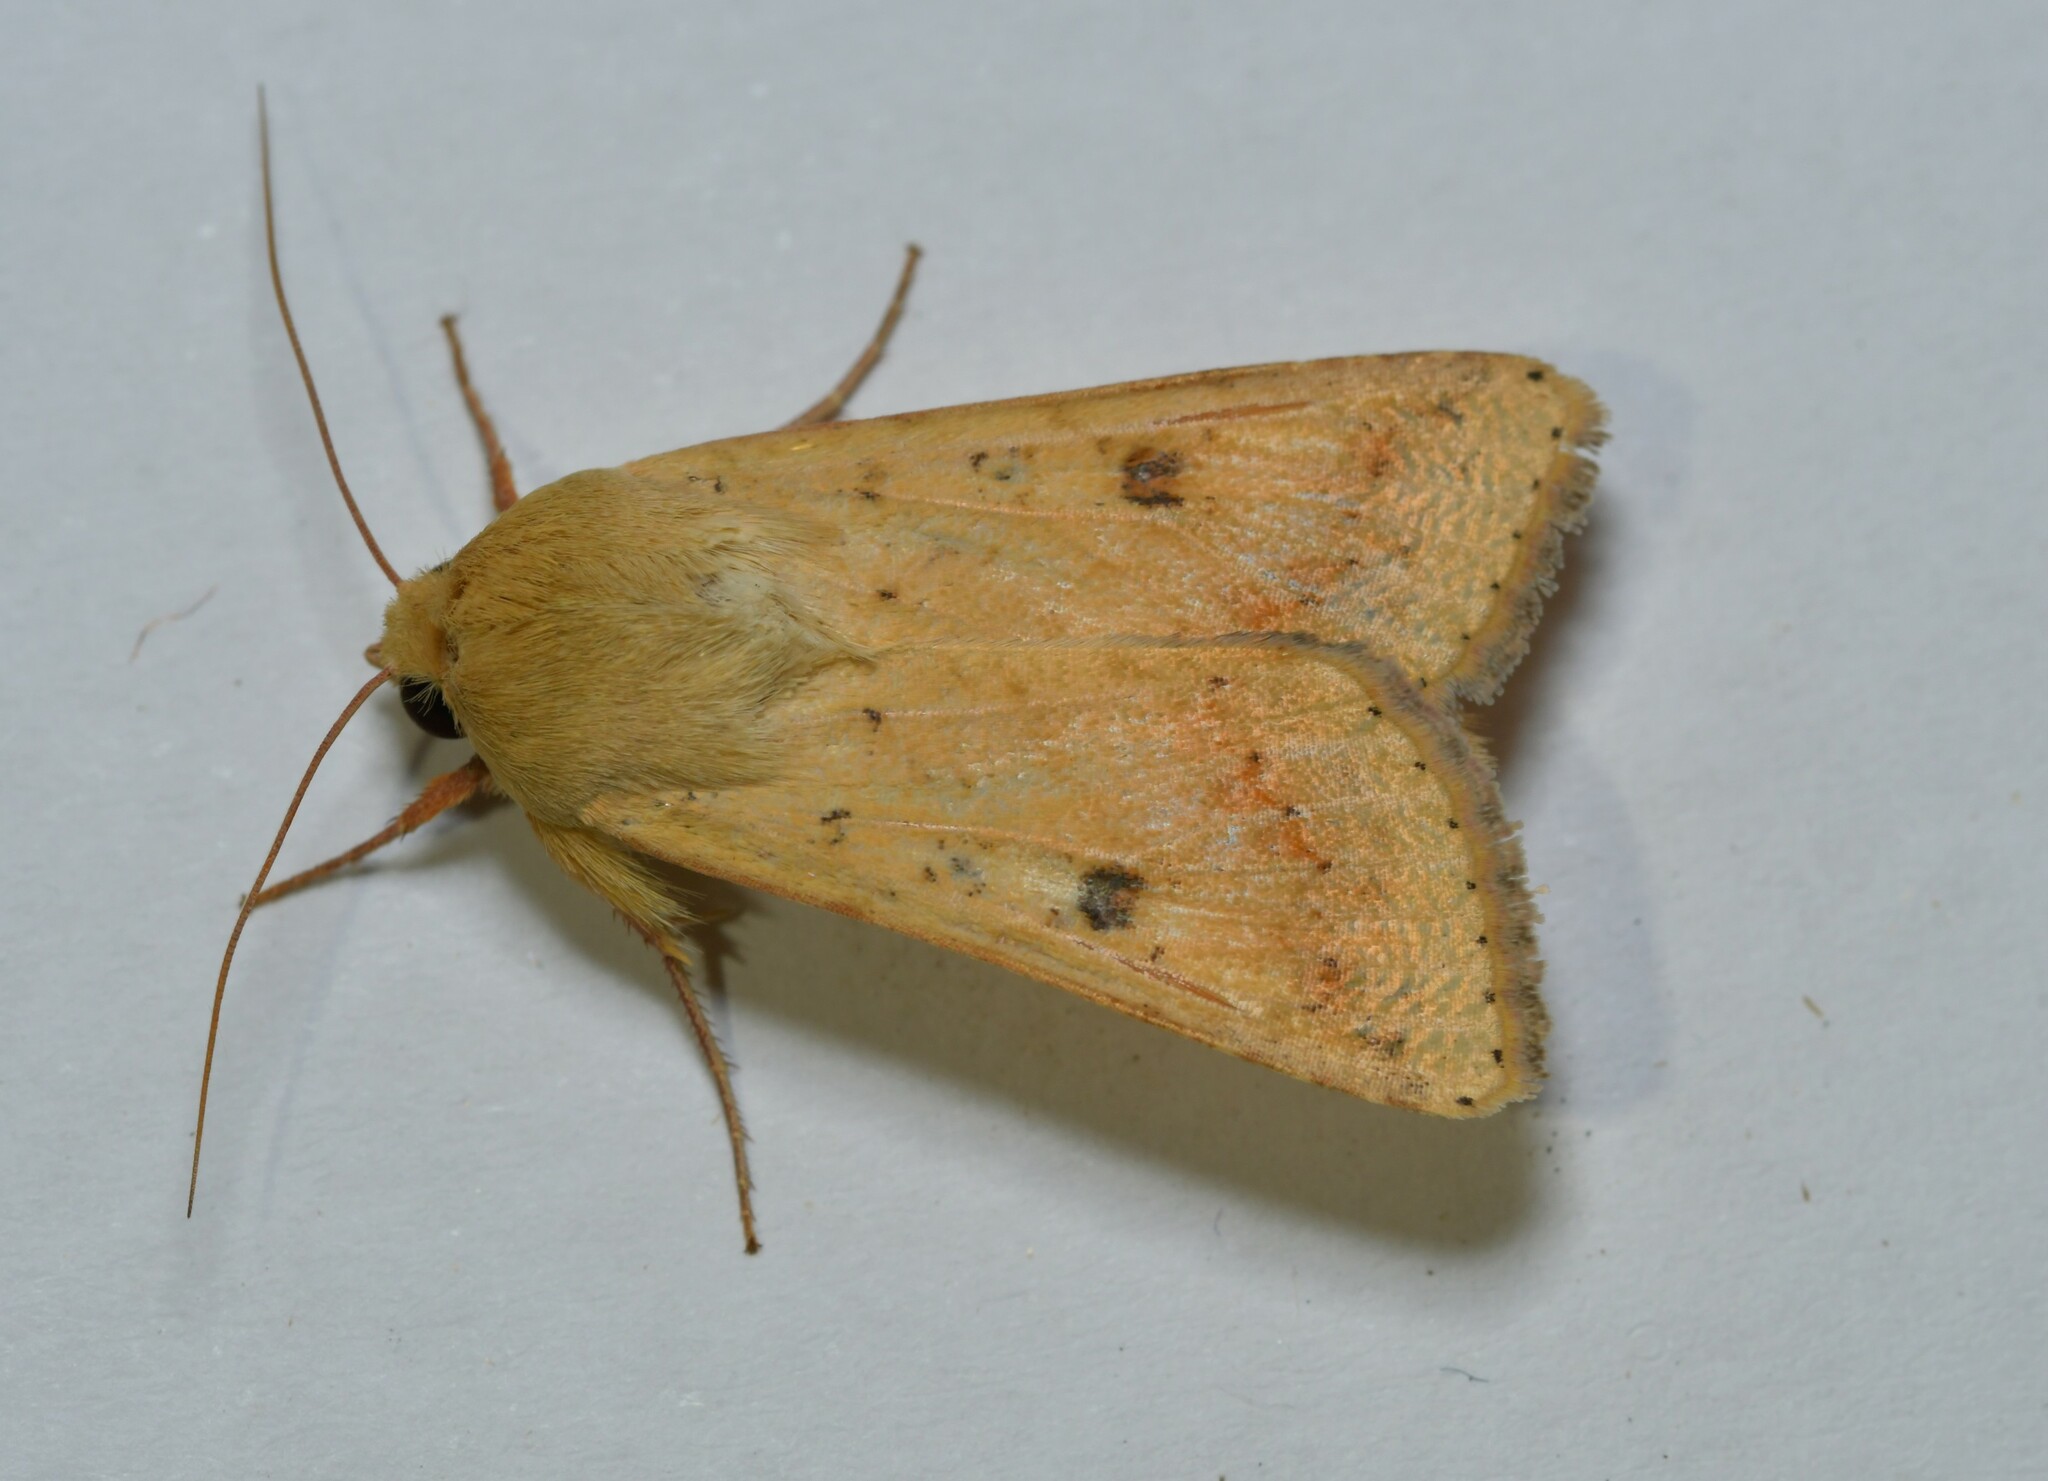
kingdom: Animalia
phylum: Arthropoda
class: Insecta
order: Lepidoptera
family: Noctuidae
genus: Helicoverpa
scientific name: Helicoverpa armigera
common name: Cotton bollworm
